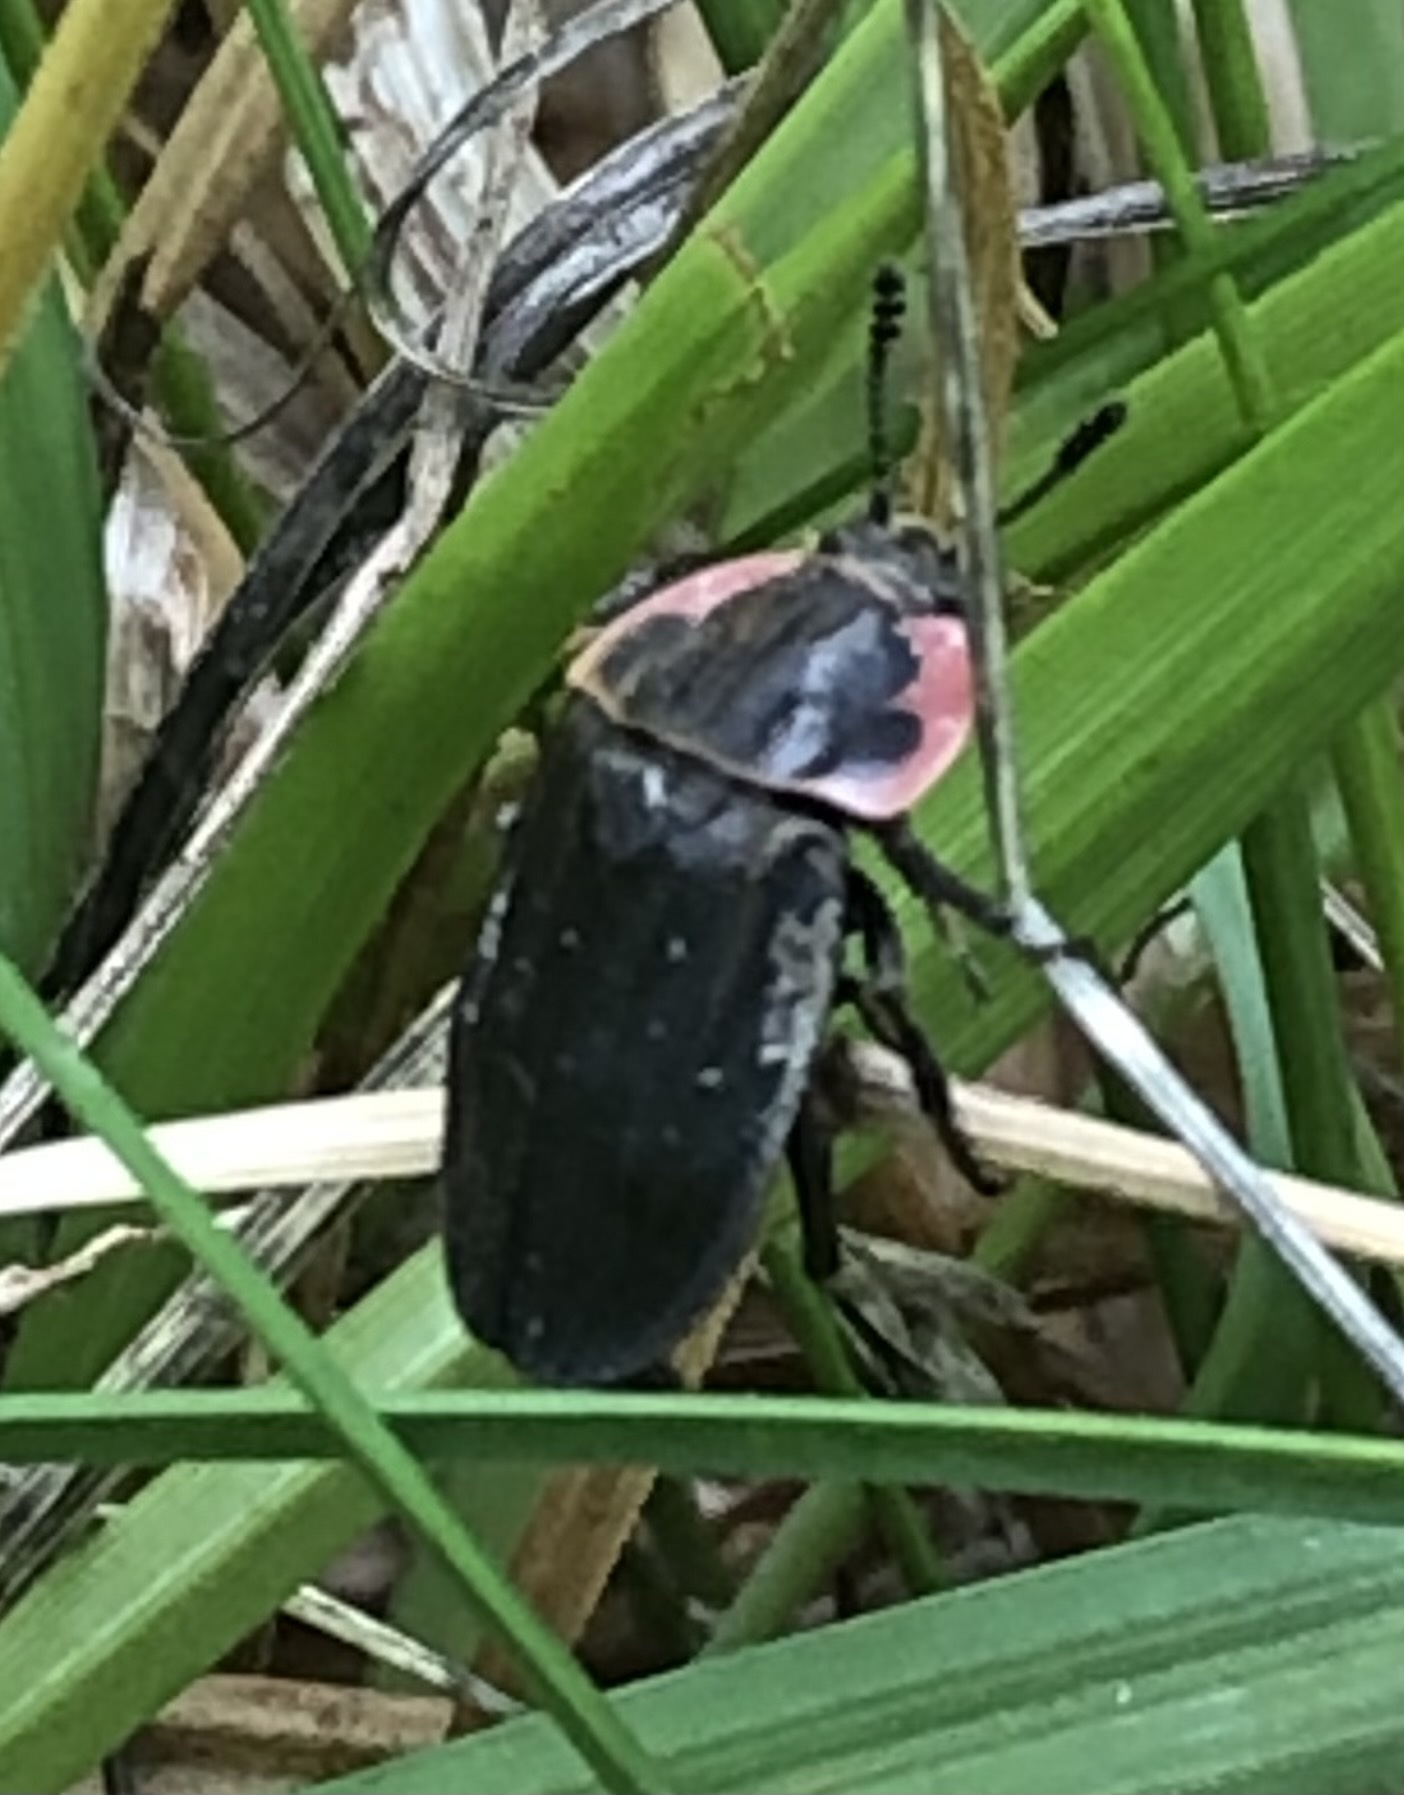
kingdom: Animalia
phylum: Arthropoda
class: Insecta
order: Coleoptera
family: Staphylinidae
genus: Oiceoptoma
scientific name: Oiceoptoma noveboracense
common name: Margined carrion beetle
